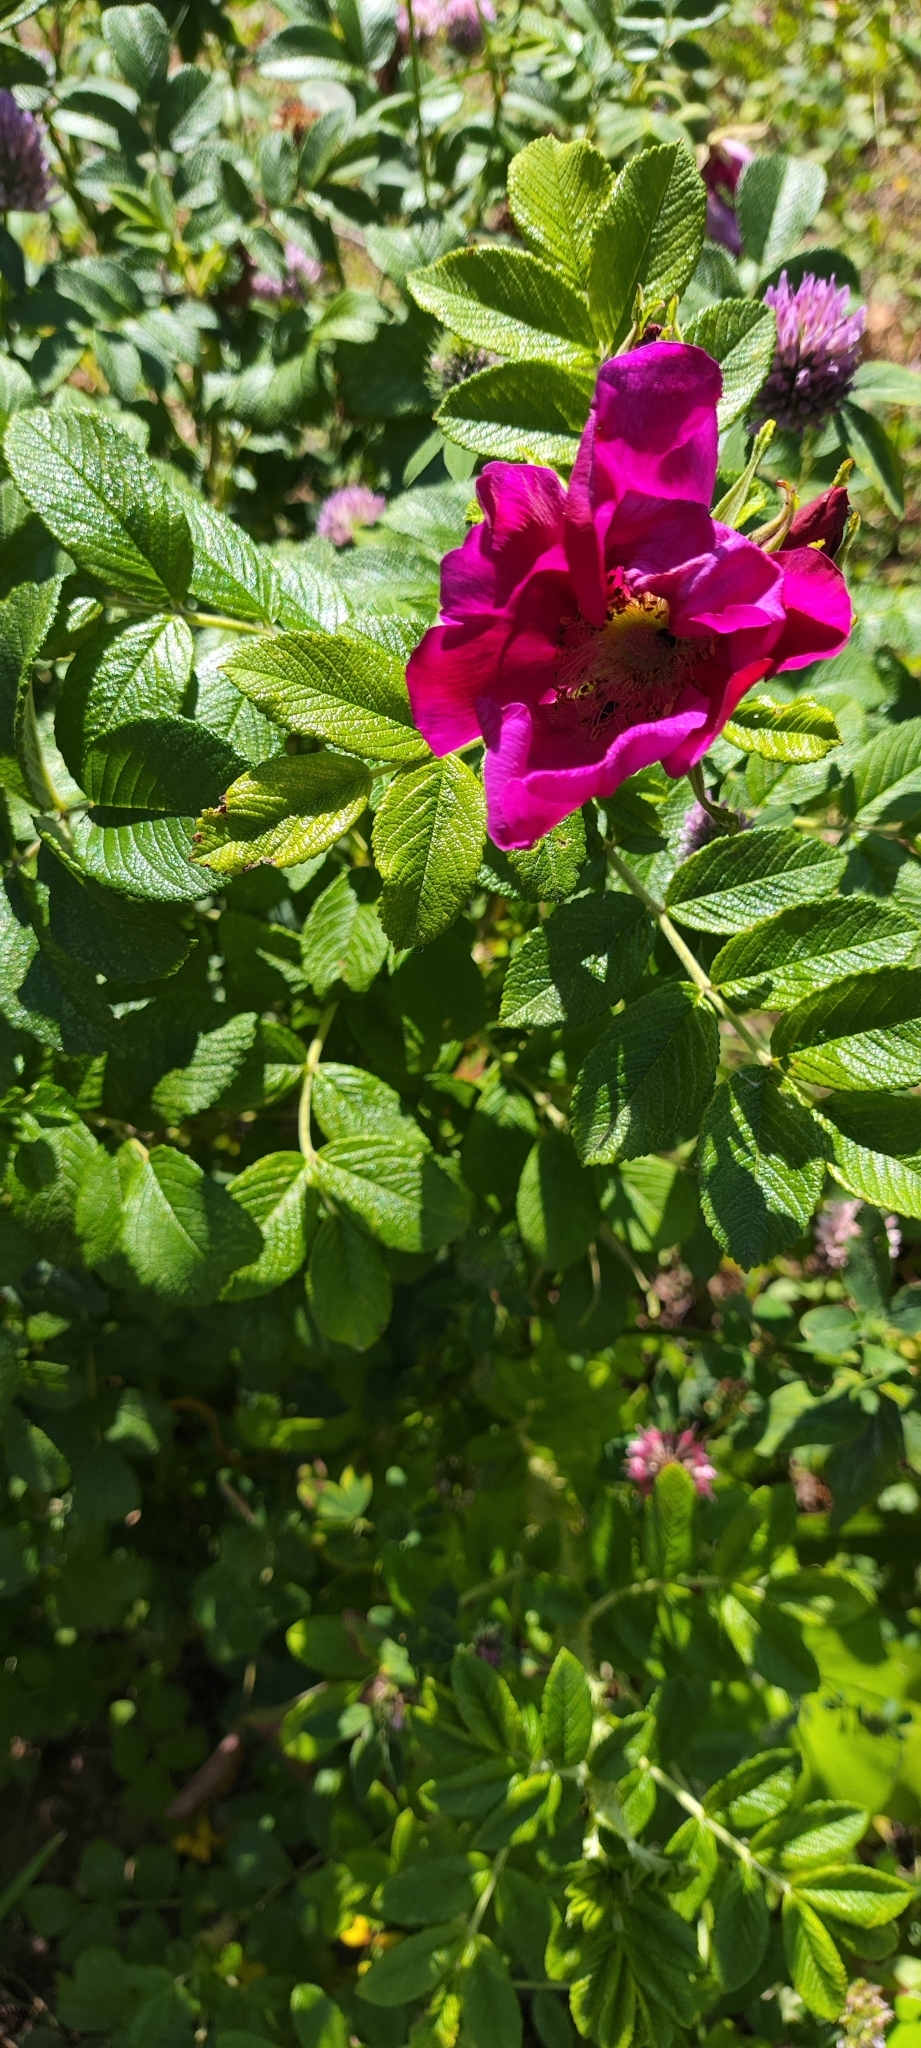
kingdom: Plantae
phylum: Tracheophyta
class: Magnoliopsida
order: Rosales
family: Rosaceae
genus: Rosa
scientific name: Rosa rugosa
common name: Japanese rose
